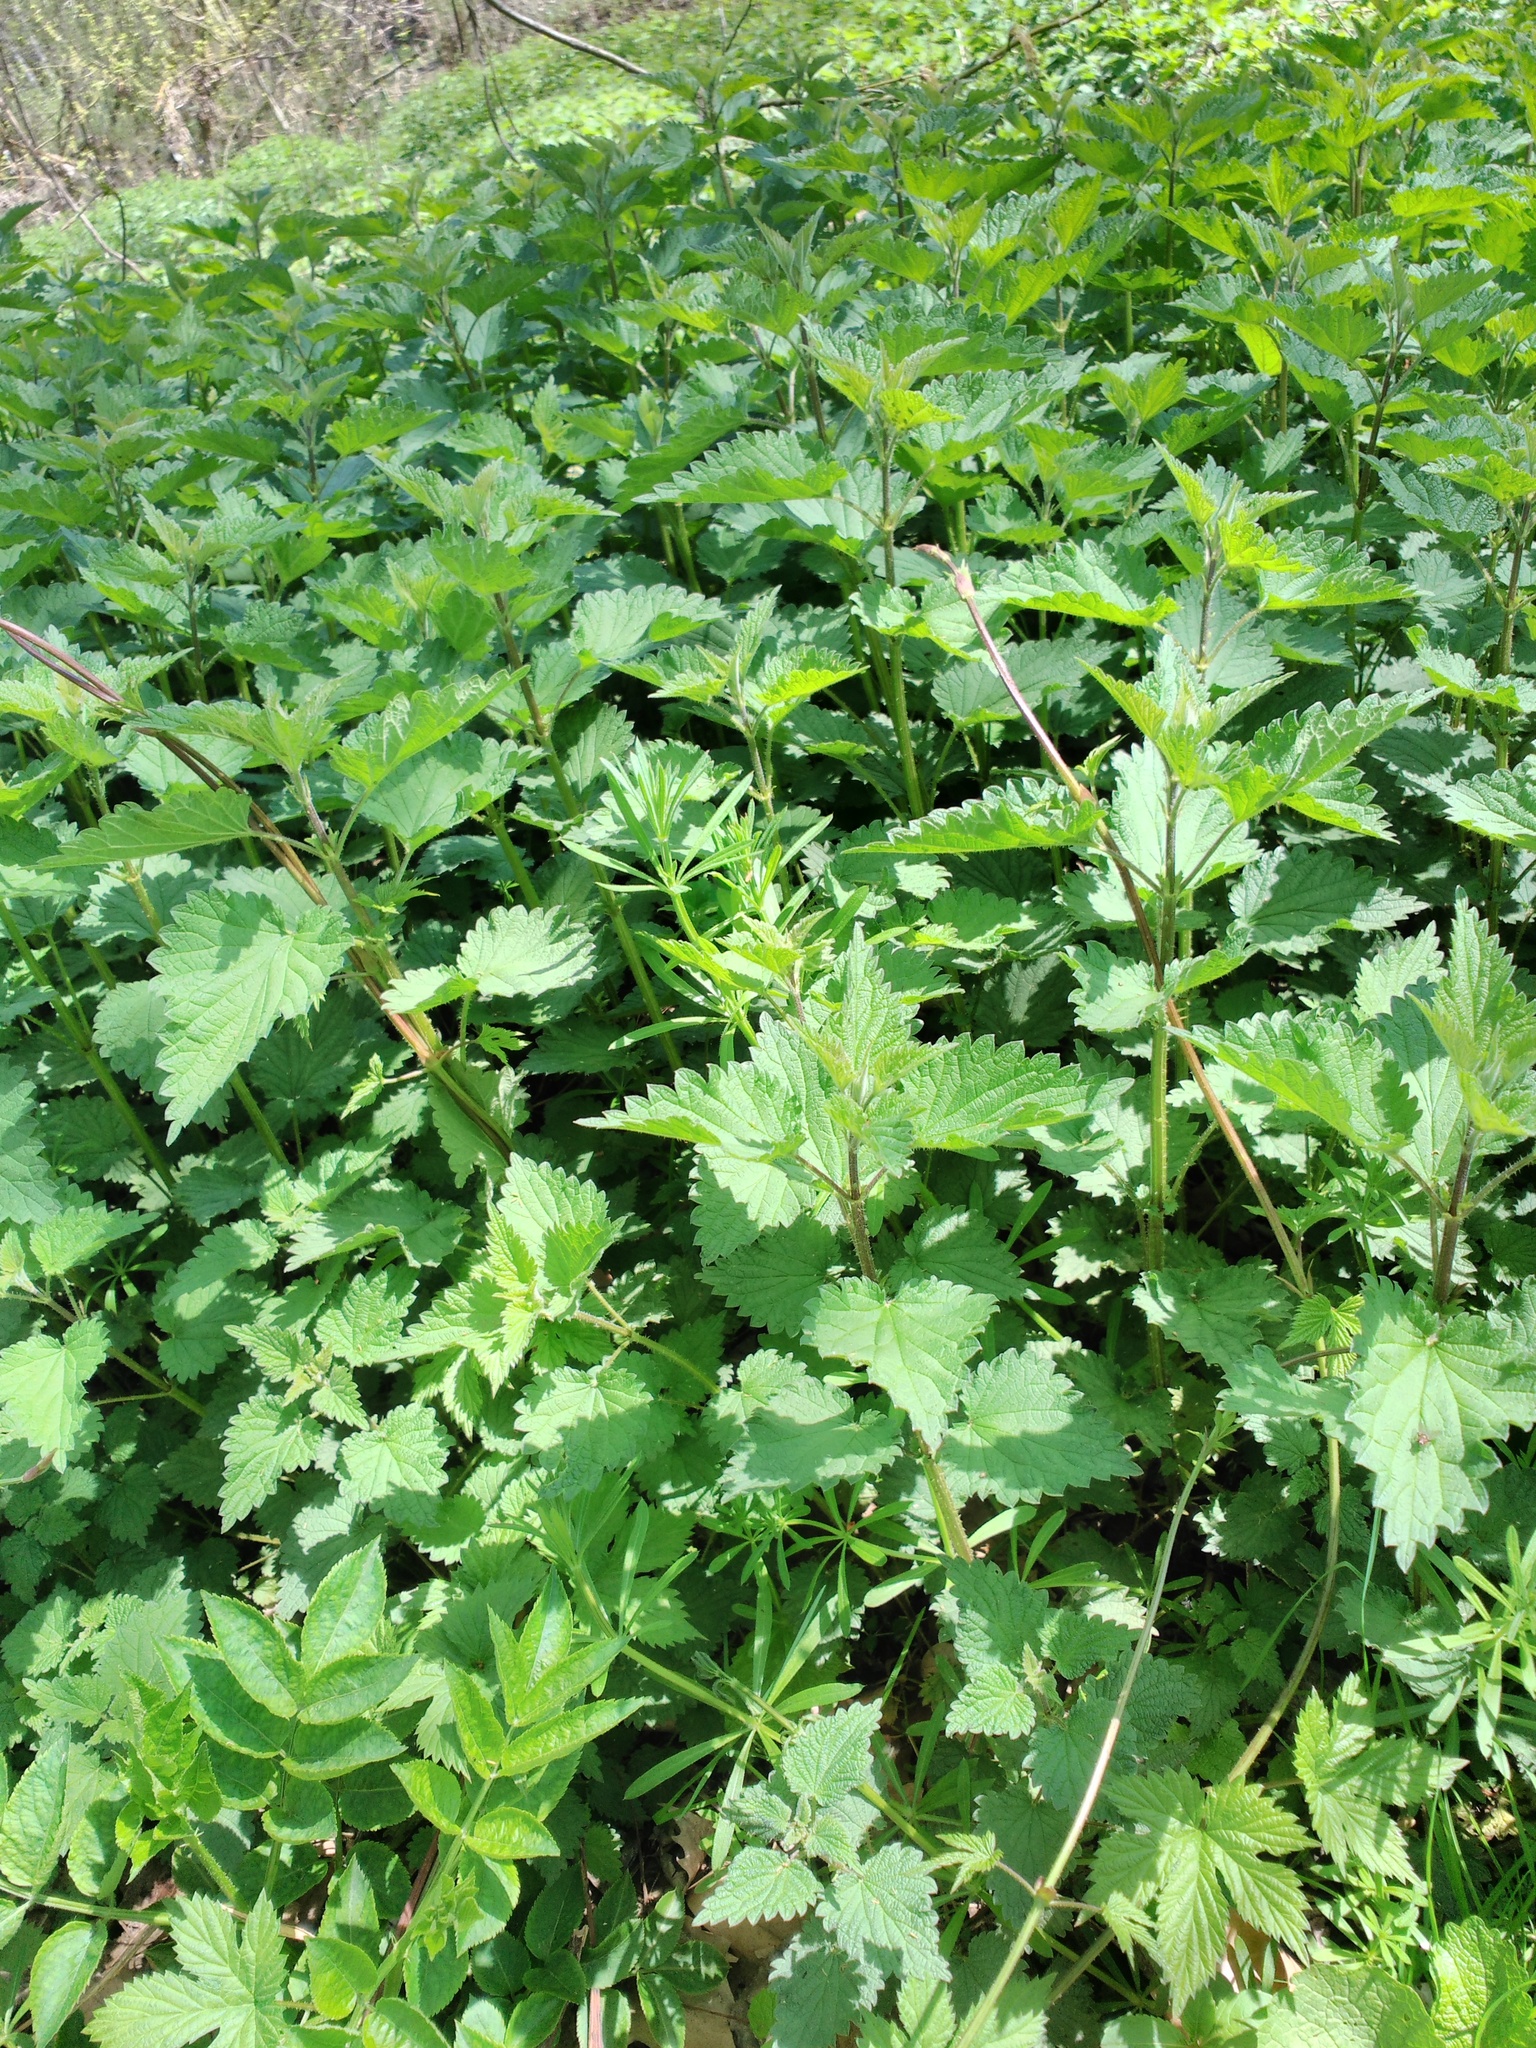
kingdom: Plantae
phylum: Tracheophyta
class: Magnoliopsida
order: Rosales
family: Urticaceae
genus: Urtica
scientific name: Urtica dioica
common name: Common nettle
